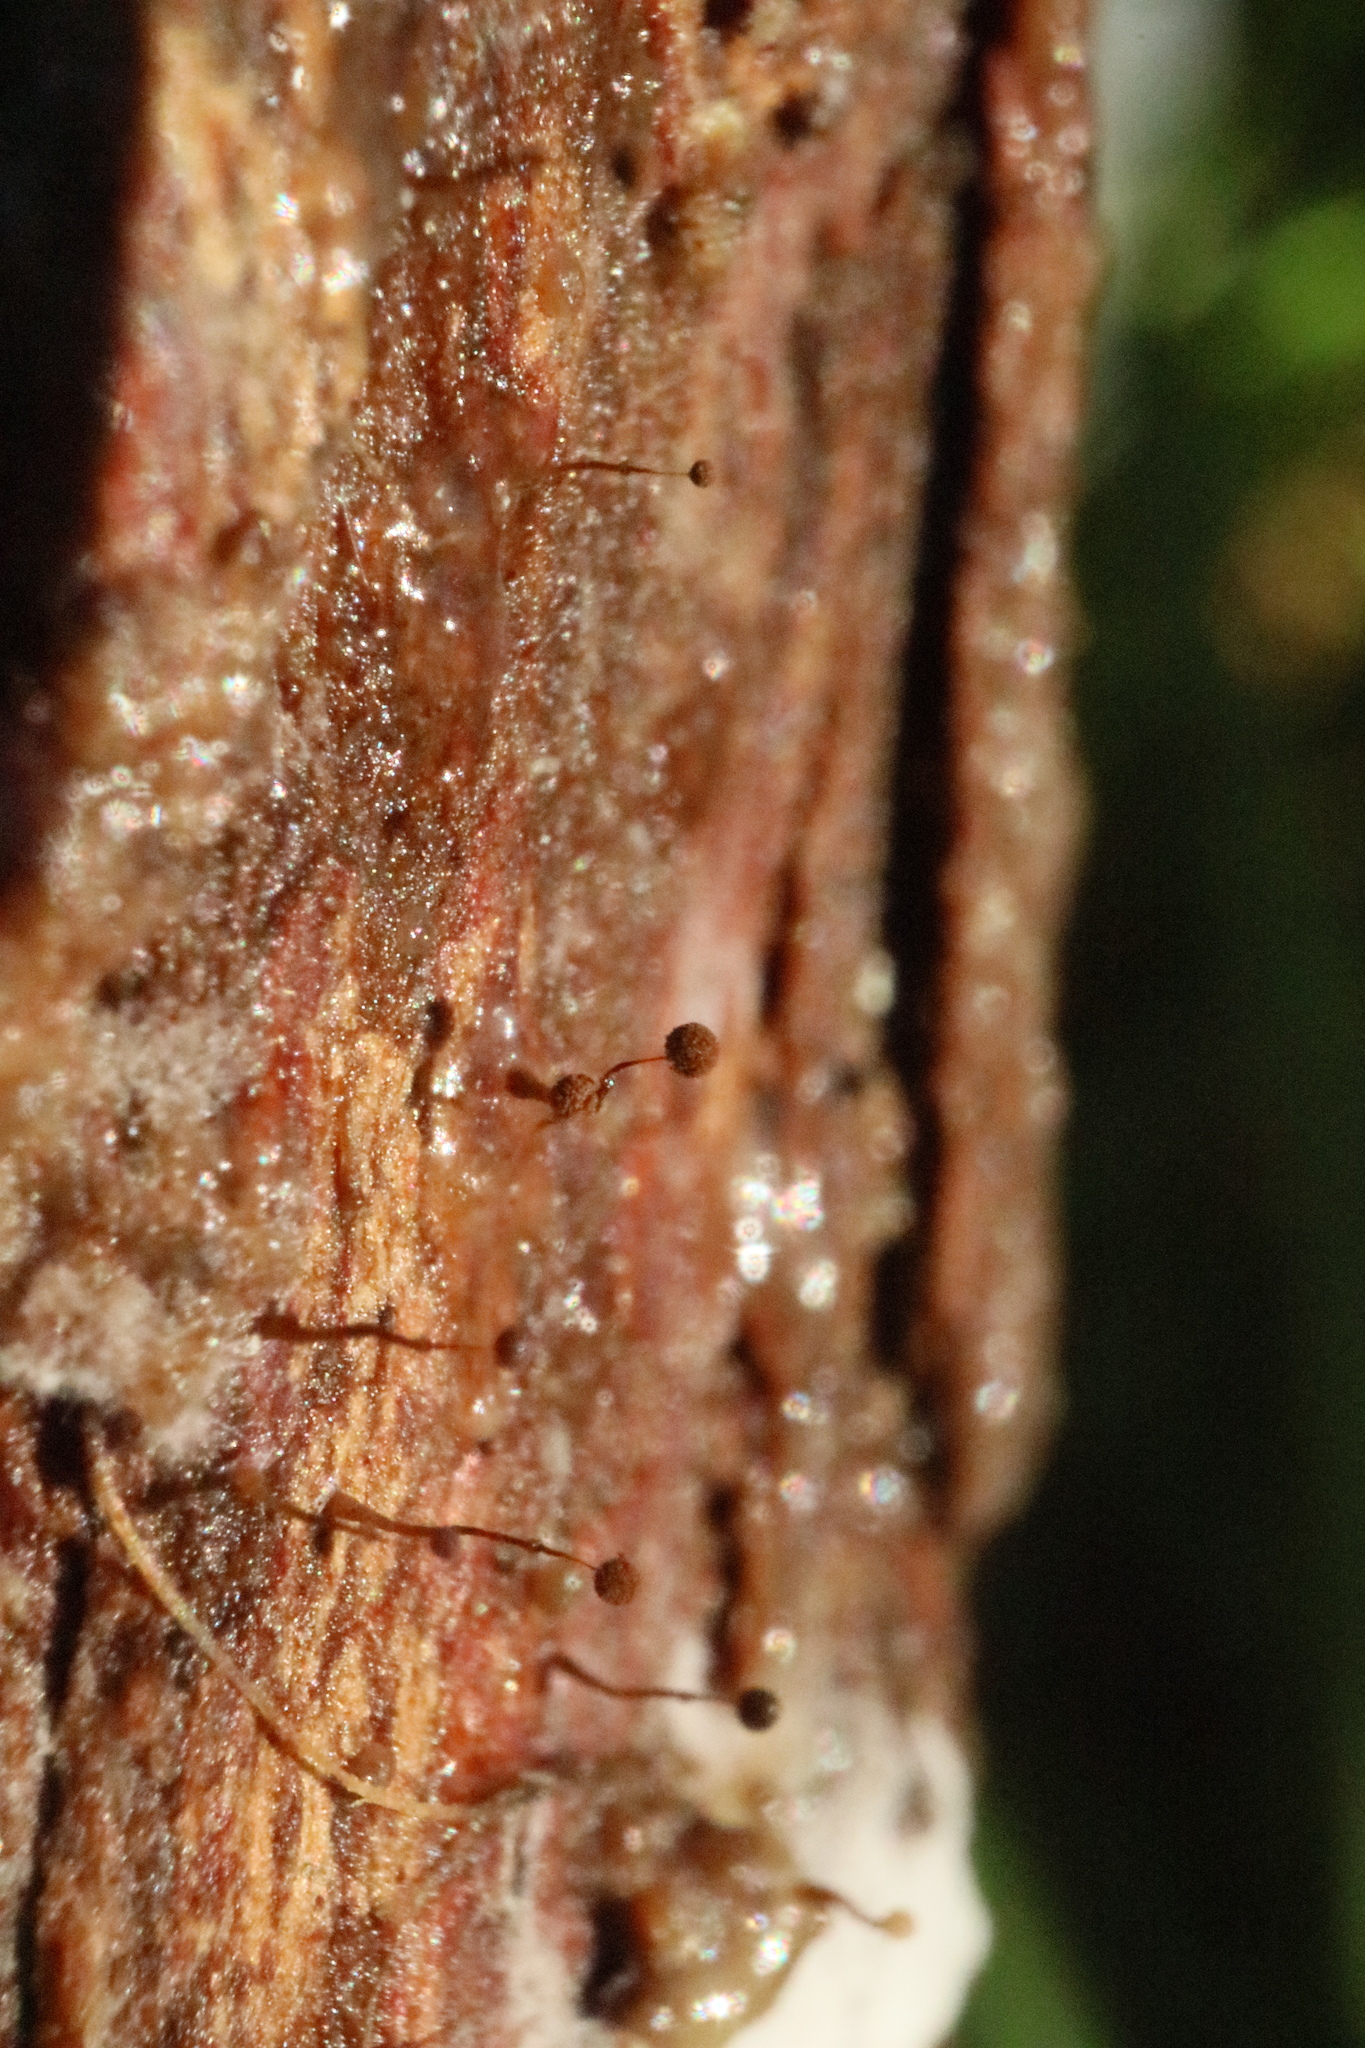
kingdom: Protozoa
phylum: Mycetozoa
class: Myxomycetes
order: Echinosteliales
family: Clastodermataceae
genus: Clastoderma
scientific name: Clastoderma debaryanum
